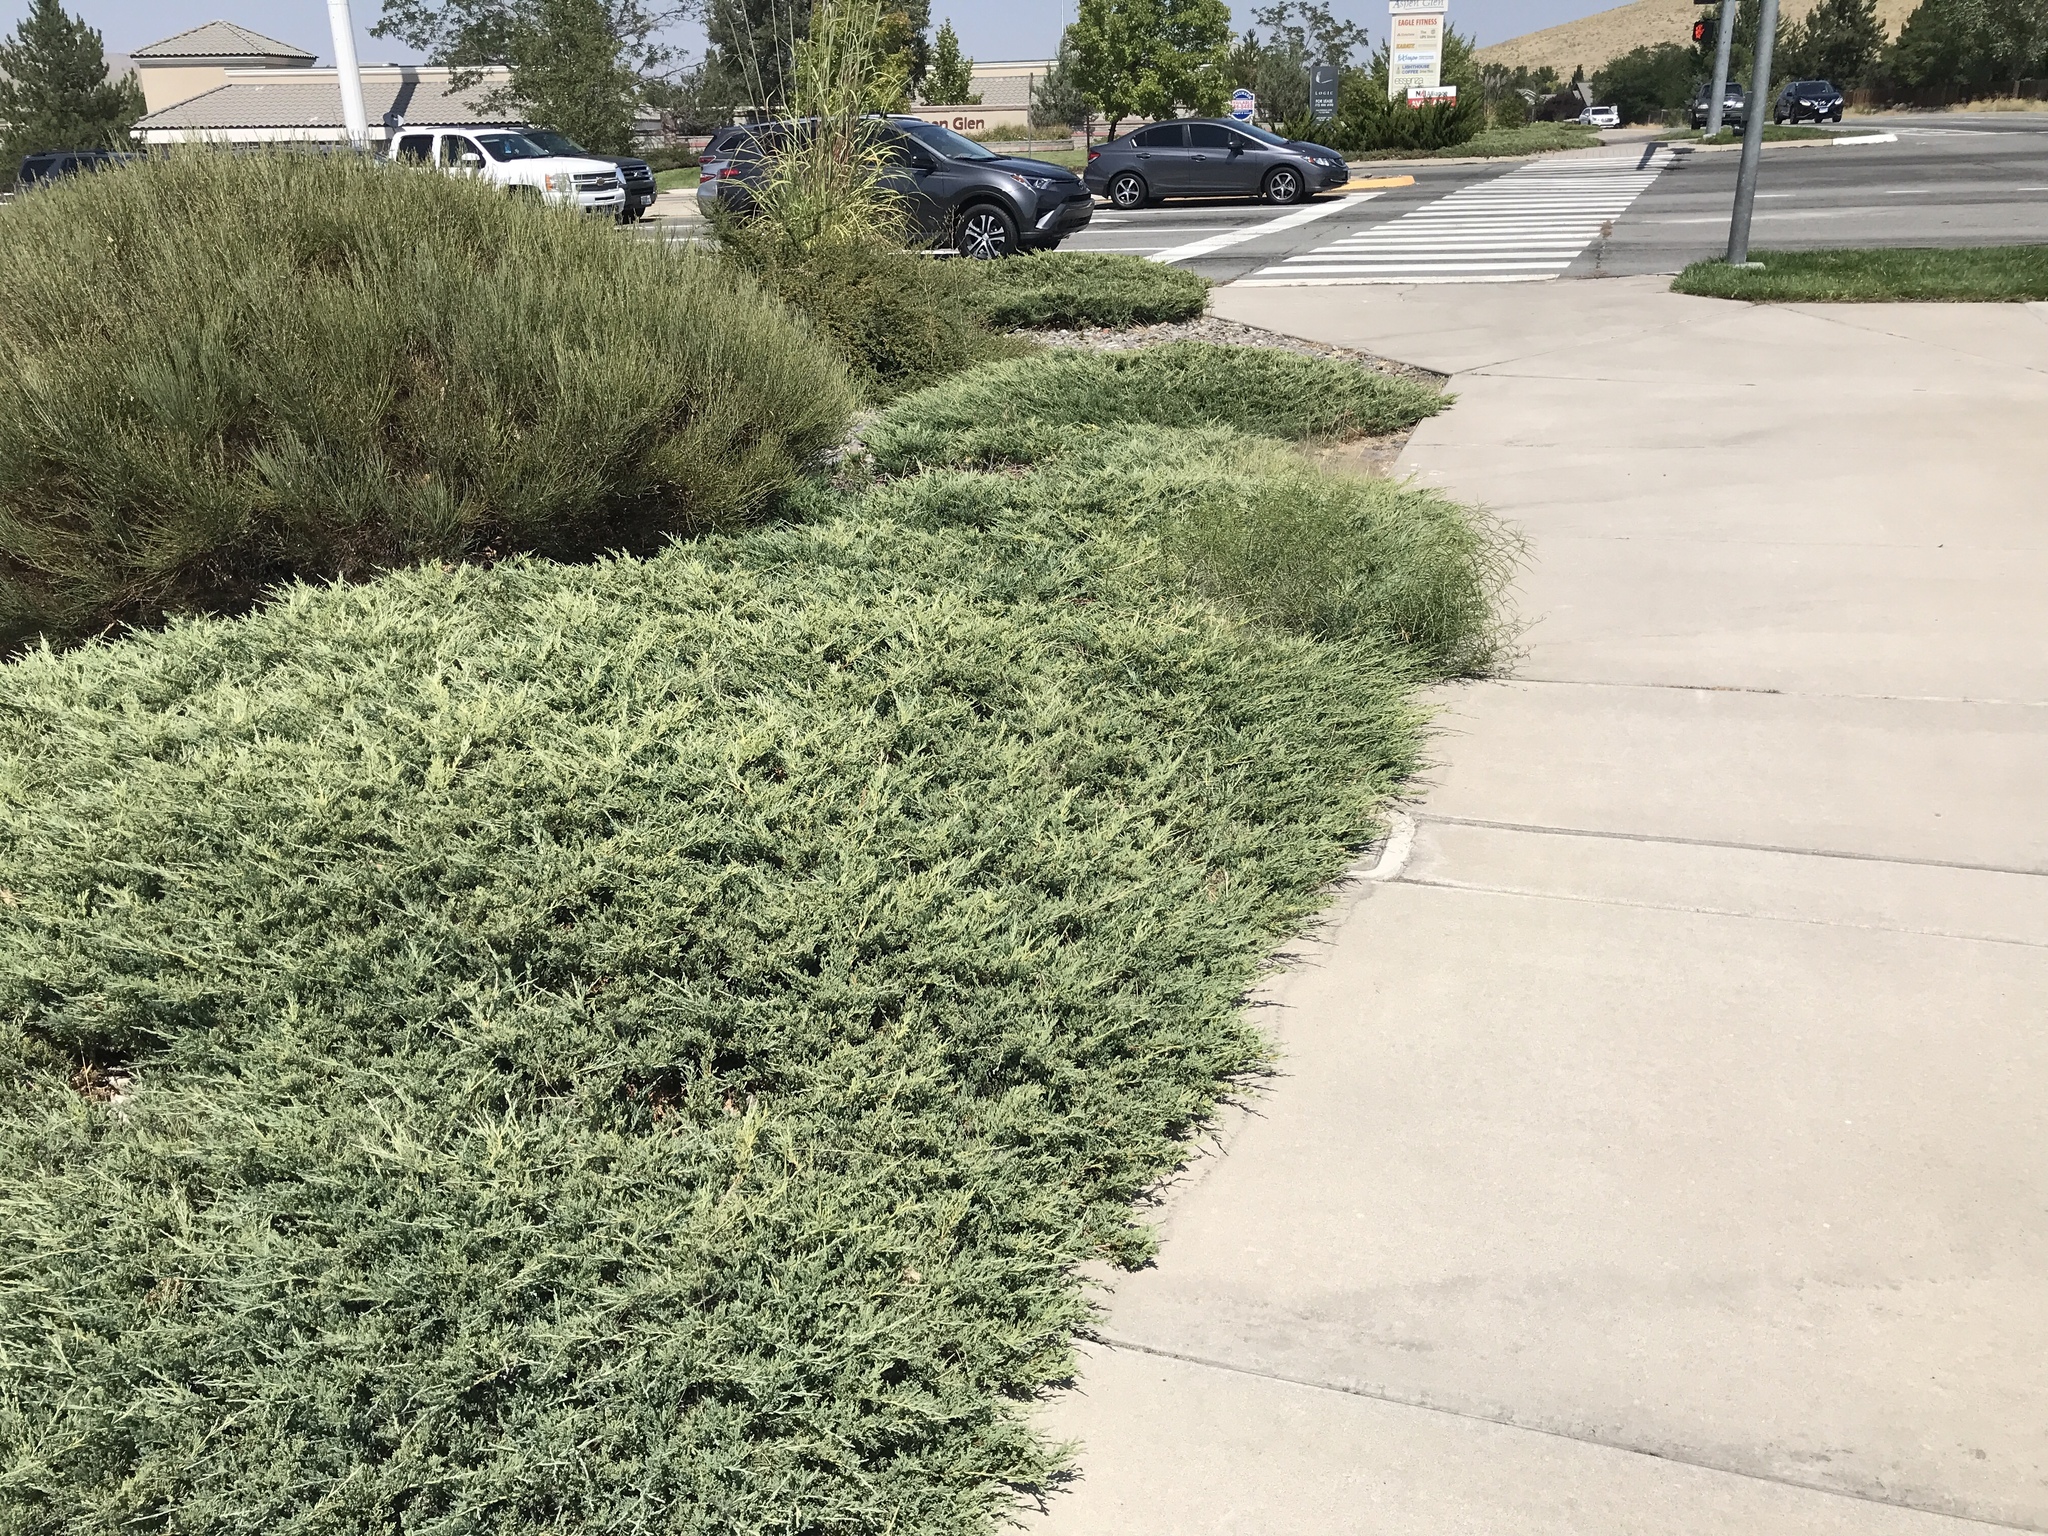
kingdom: Plantae
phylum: Tracheophyta
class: Magnoliopsida
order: Gentianales
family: Apocynaceae
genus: Asclepias
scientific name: Asclepias fascicularis
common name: Mexican milkweed
